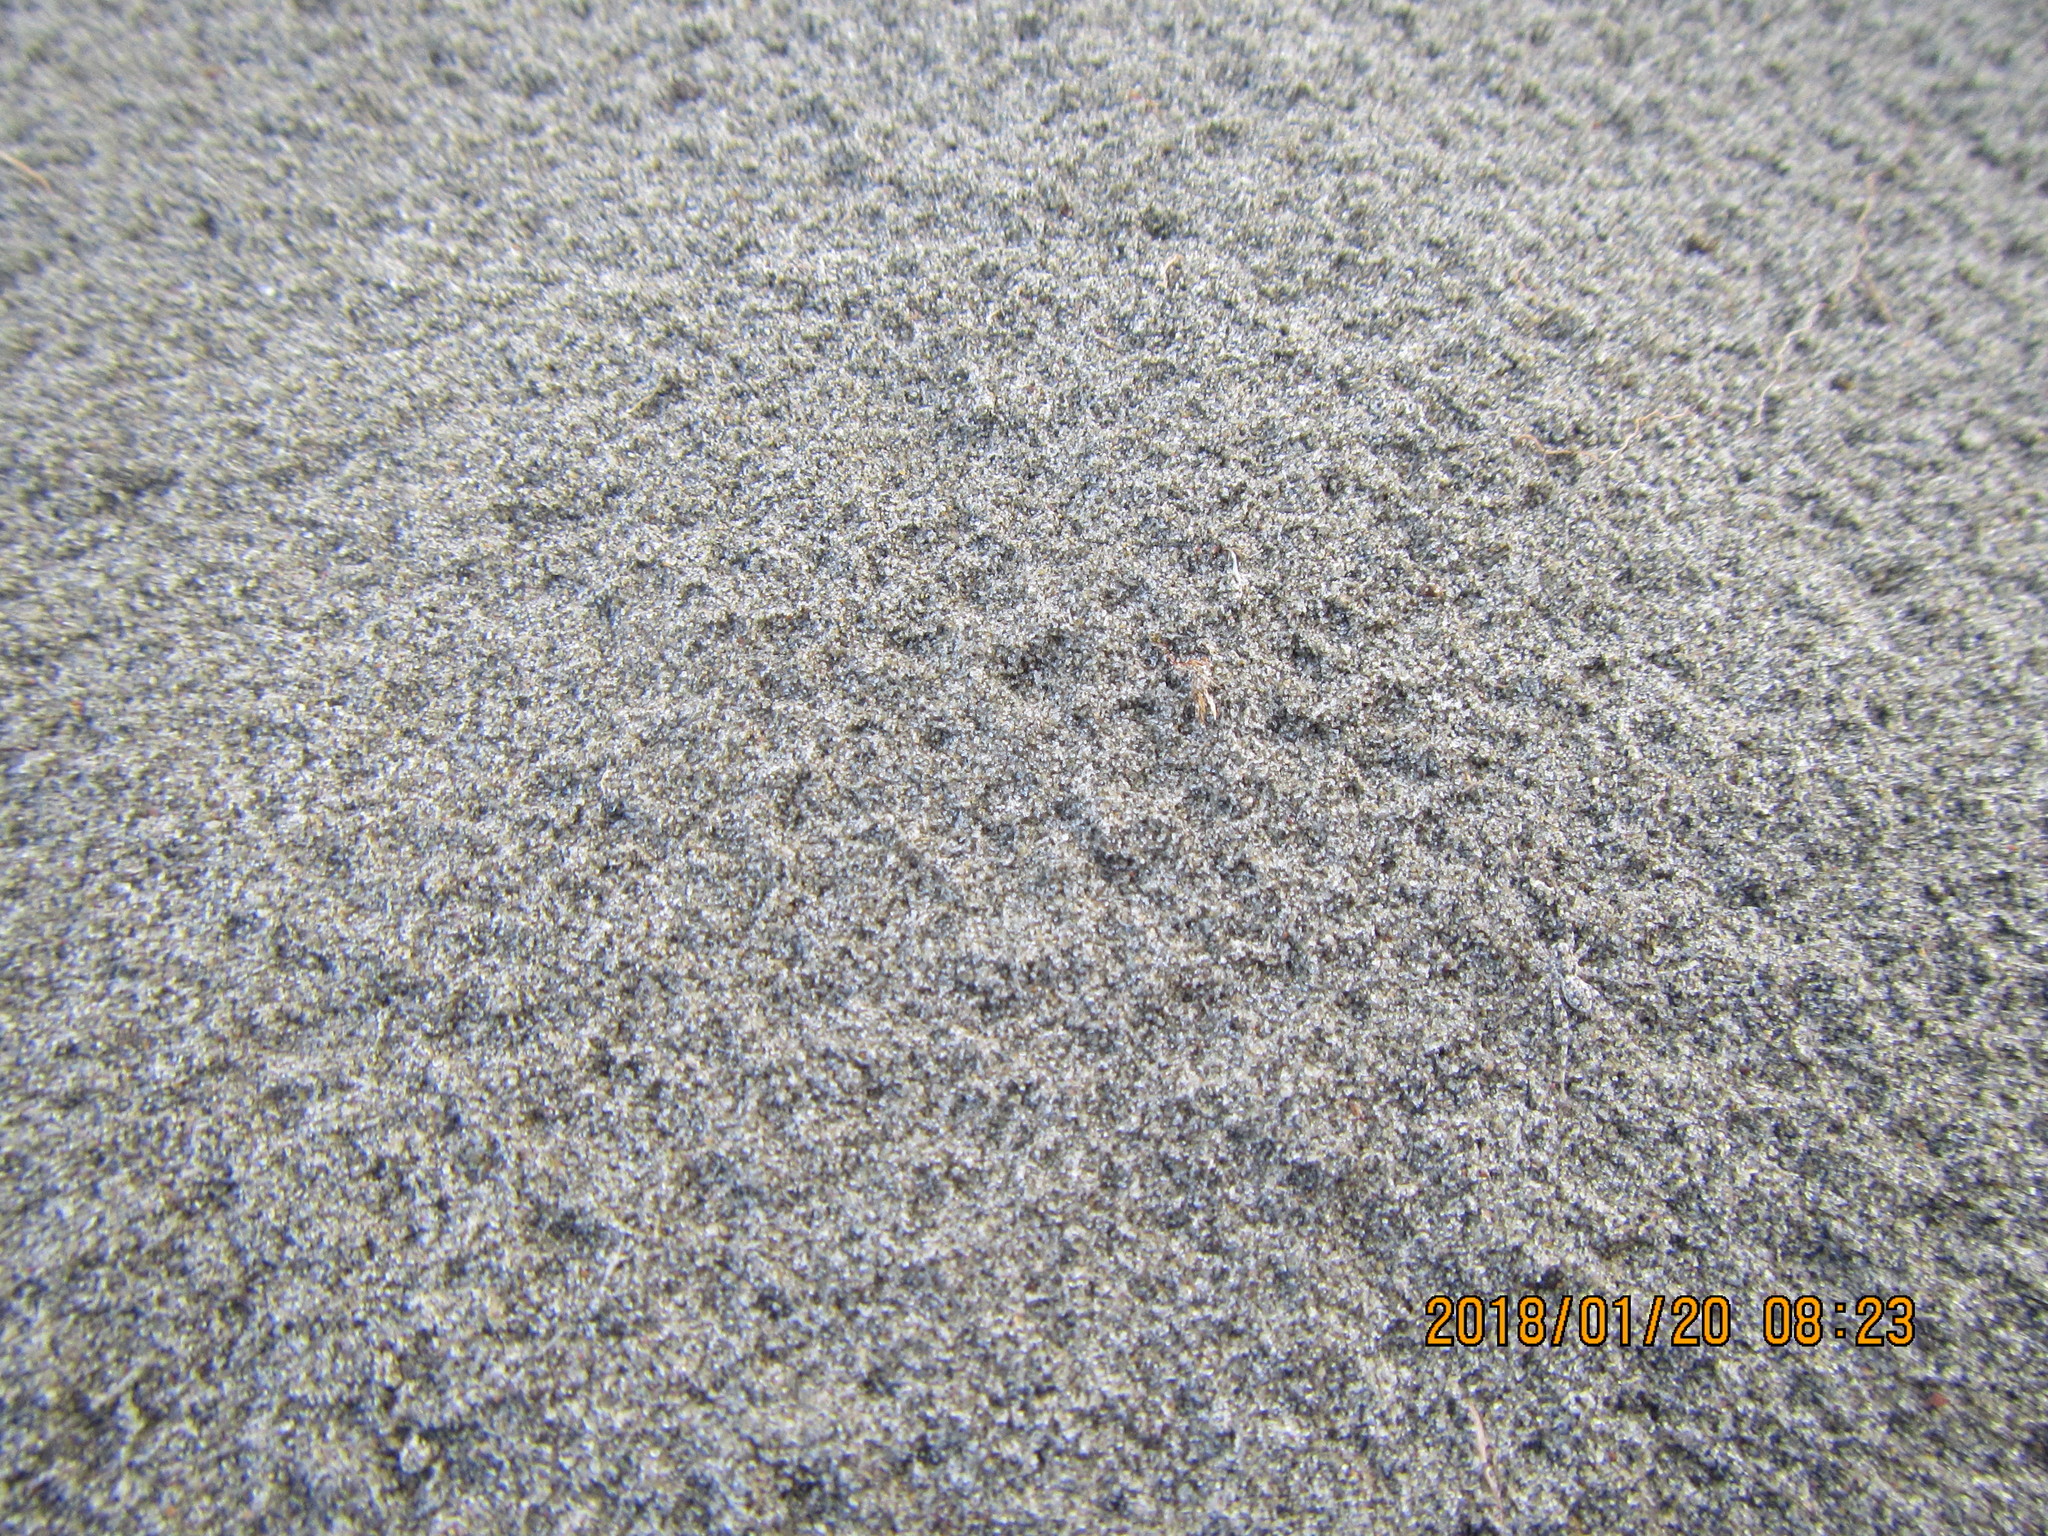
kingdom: Animalia
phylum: Arthropoda
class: Arachnida
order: Araneae
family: Lycosidae
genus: Anoteropsis
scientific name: Anoteropsis litoralis
